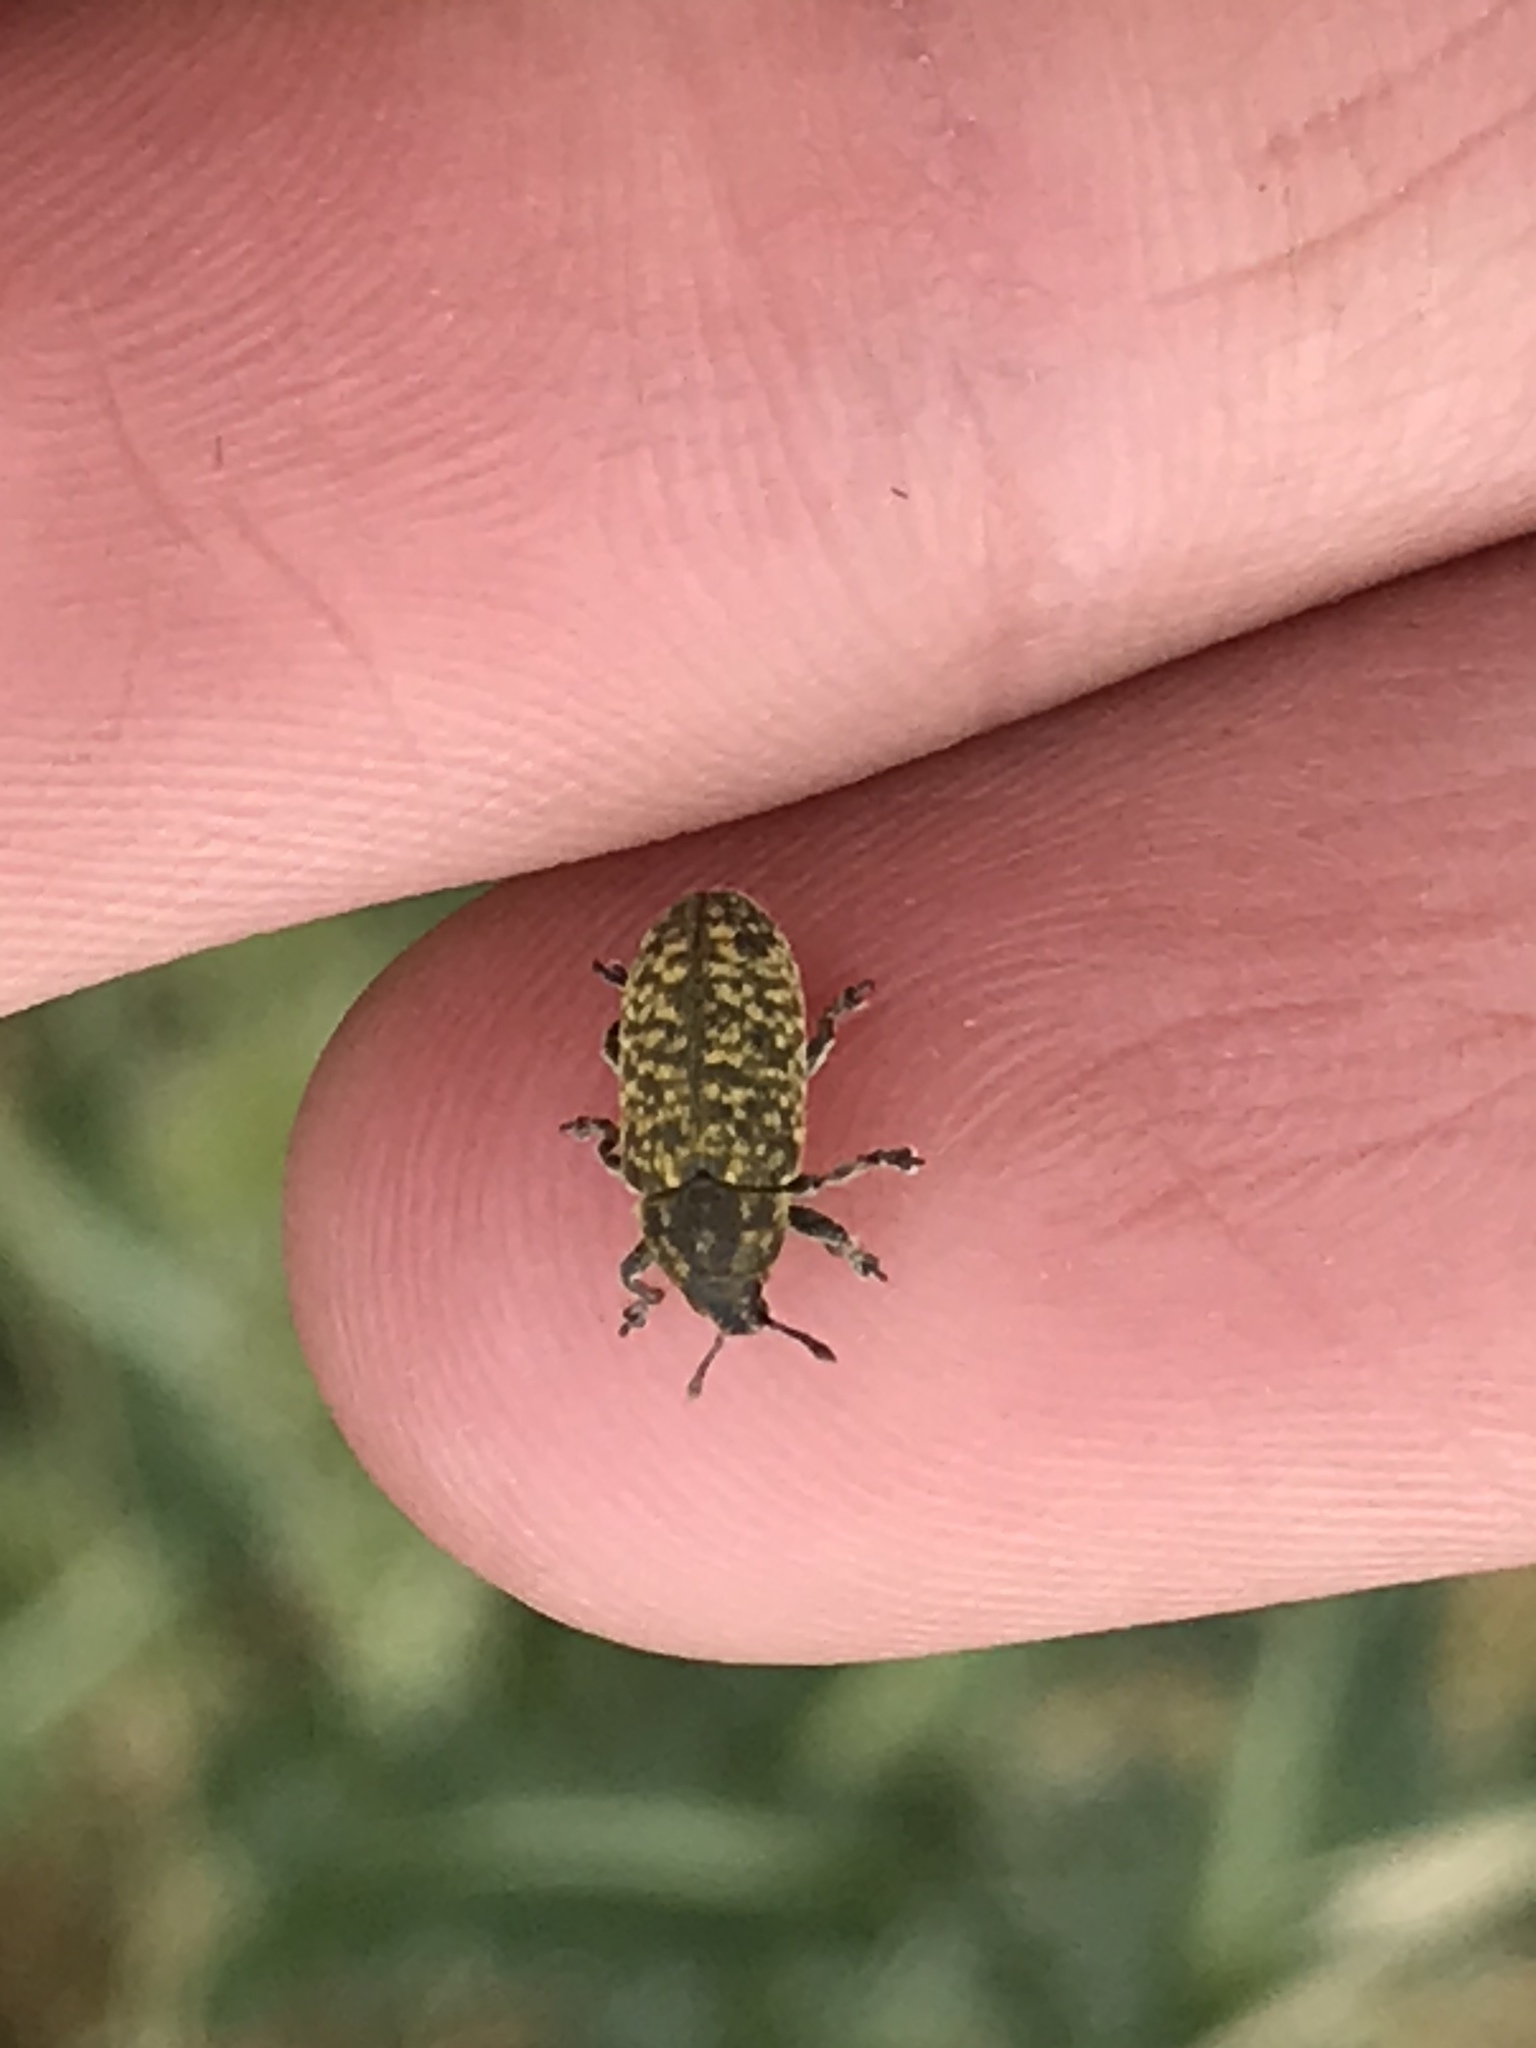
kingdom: Animalia
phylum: Arthropoda
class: Insecta
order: Coleoptera
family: Curculionidae
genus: Rhinocyllus
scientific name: Rhinocyllus conicus
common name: Weevil
